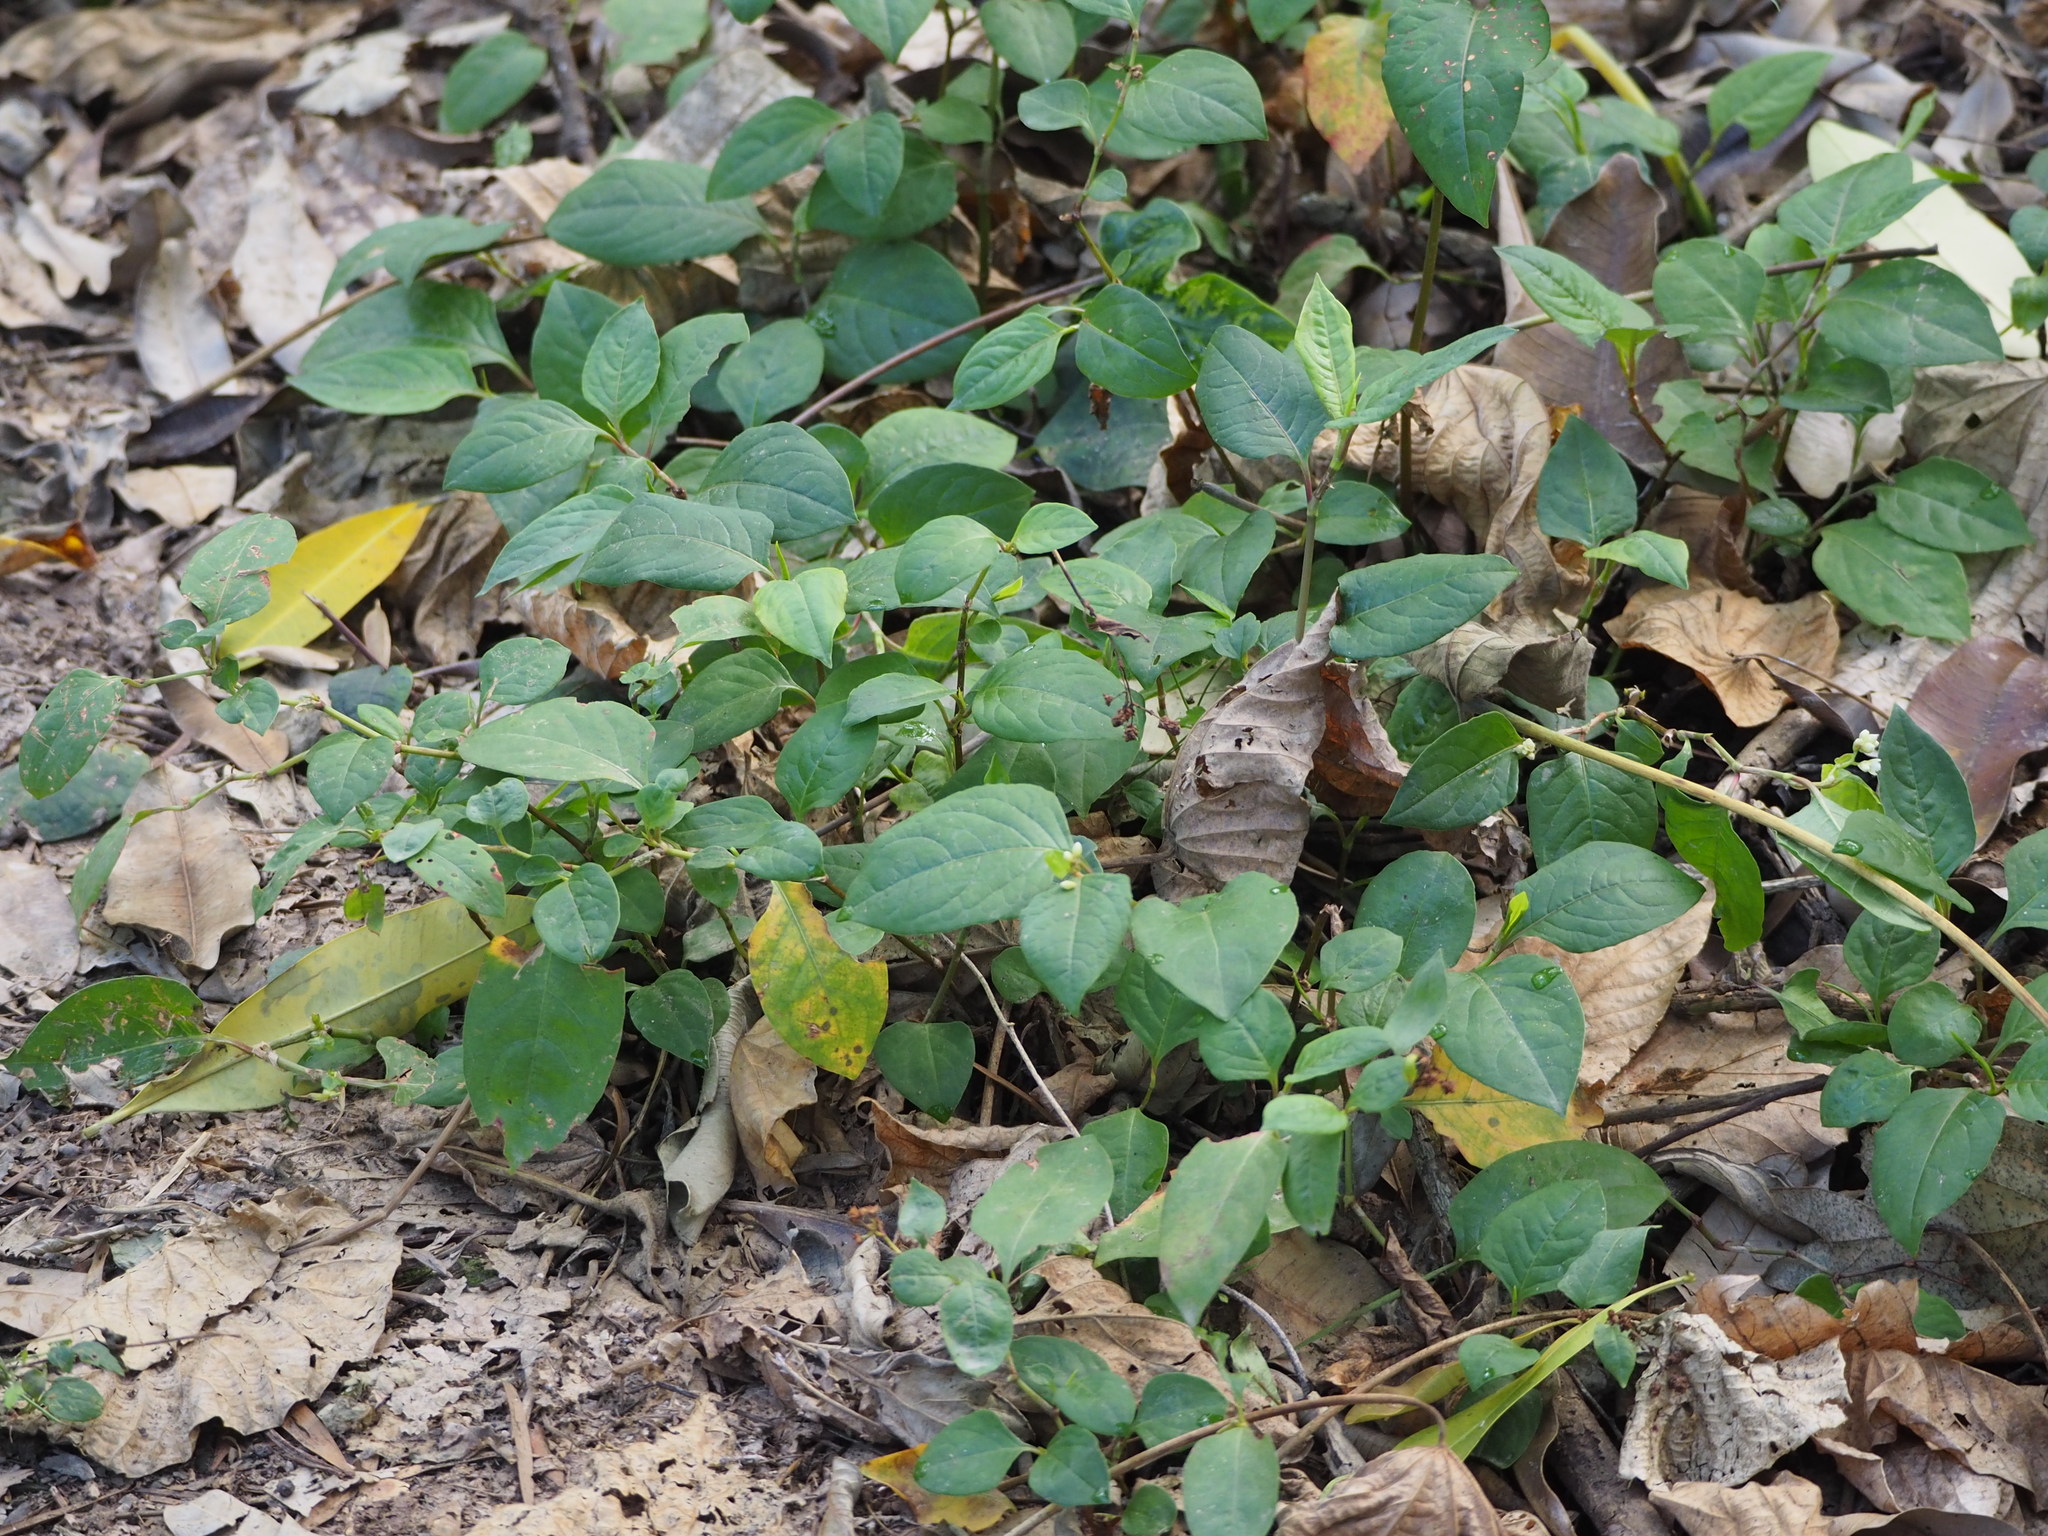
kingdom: Plantae
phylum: Tracheophyta
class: Magnoliopsida
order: Caryophyllales
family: Polygonaceae
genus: Persicaria
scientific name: Persicaria chinensis
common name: Chinese knotweed
